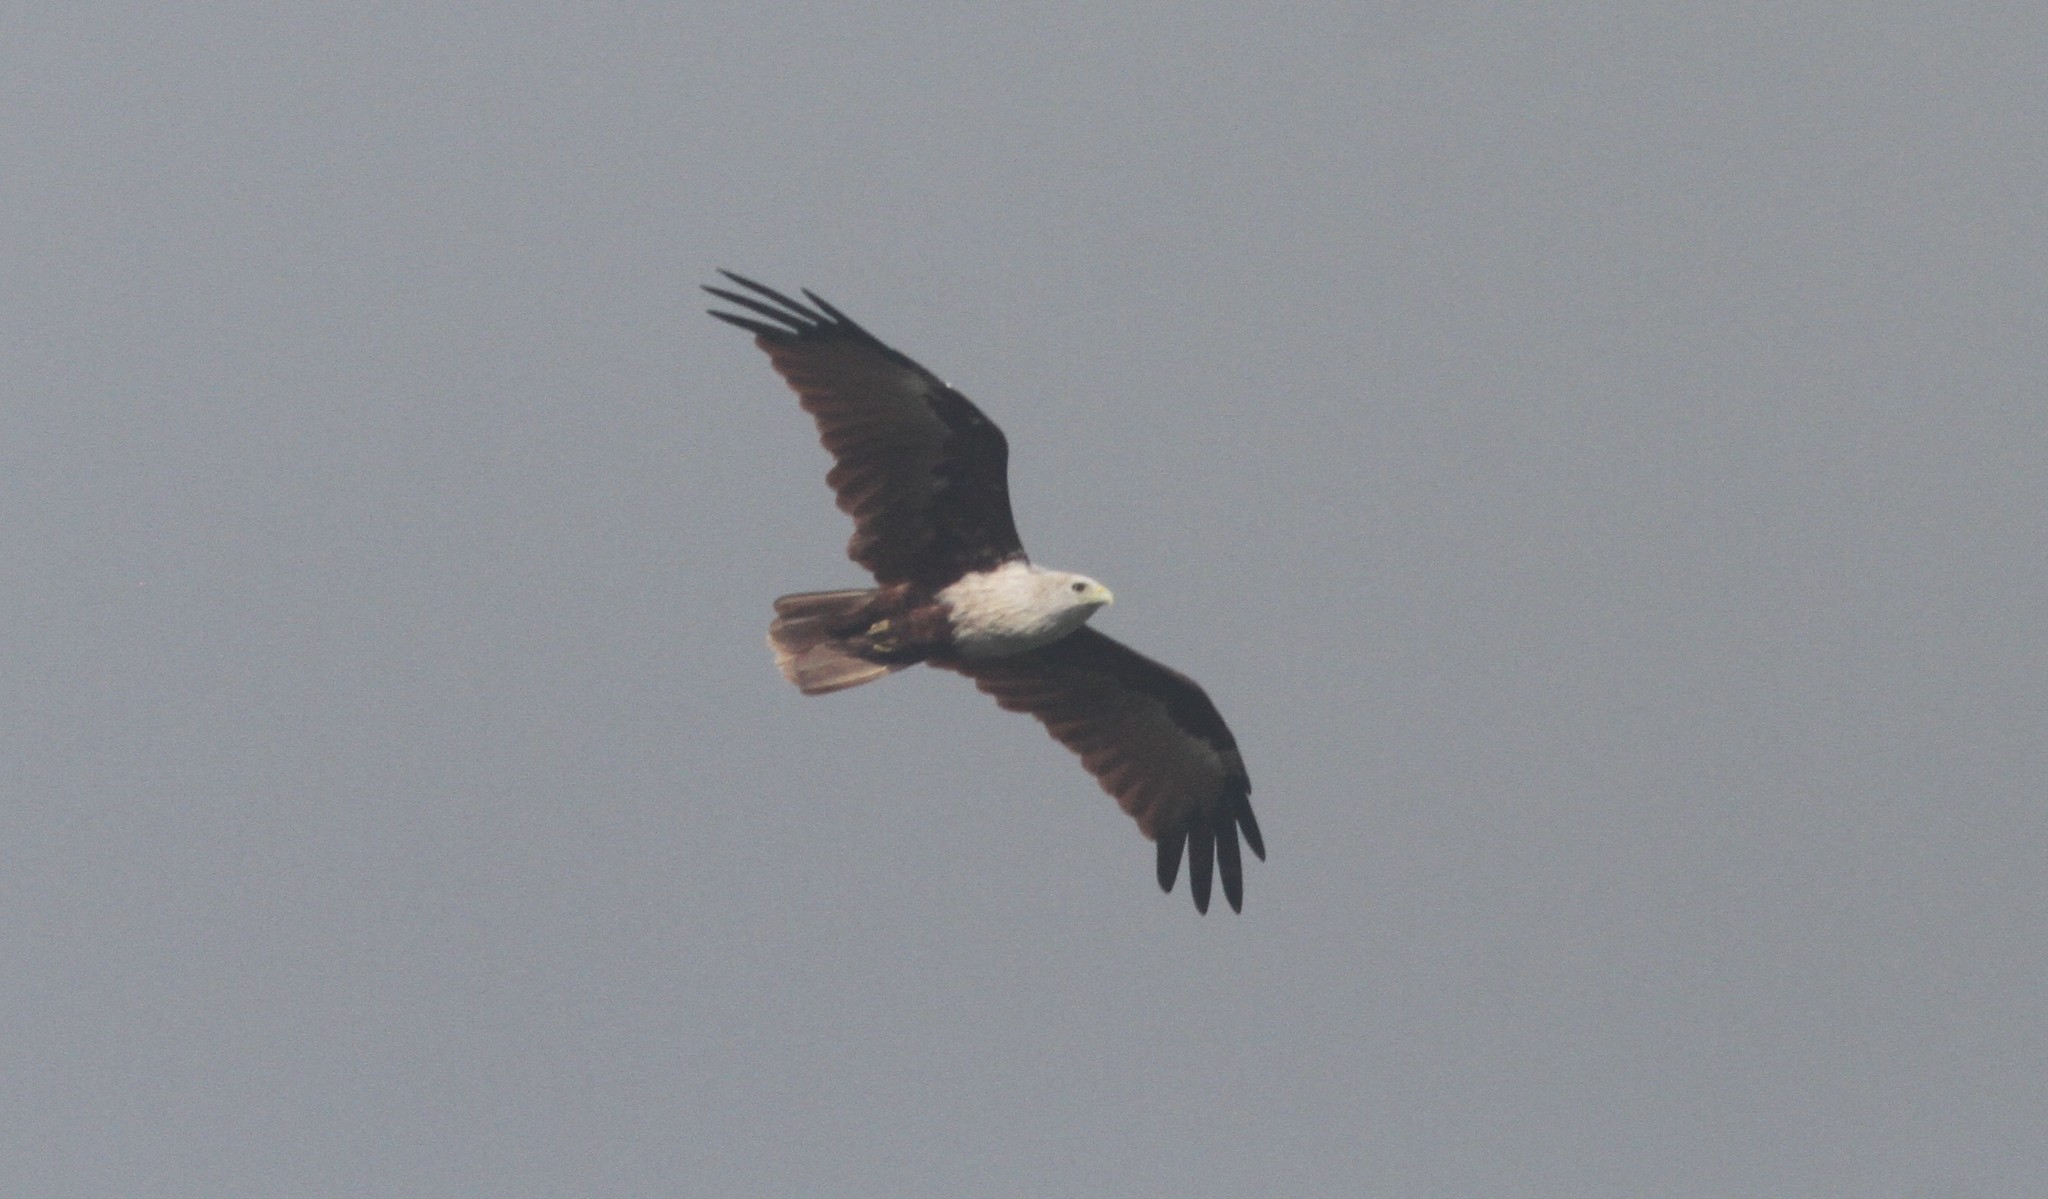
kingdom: Animalia
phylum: Chordata
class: Aves
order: Accipitriformes
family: Accipitridae
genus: Haliastur
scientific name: Haliastur indus
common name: Brahminy kite
